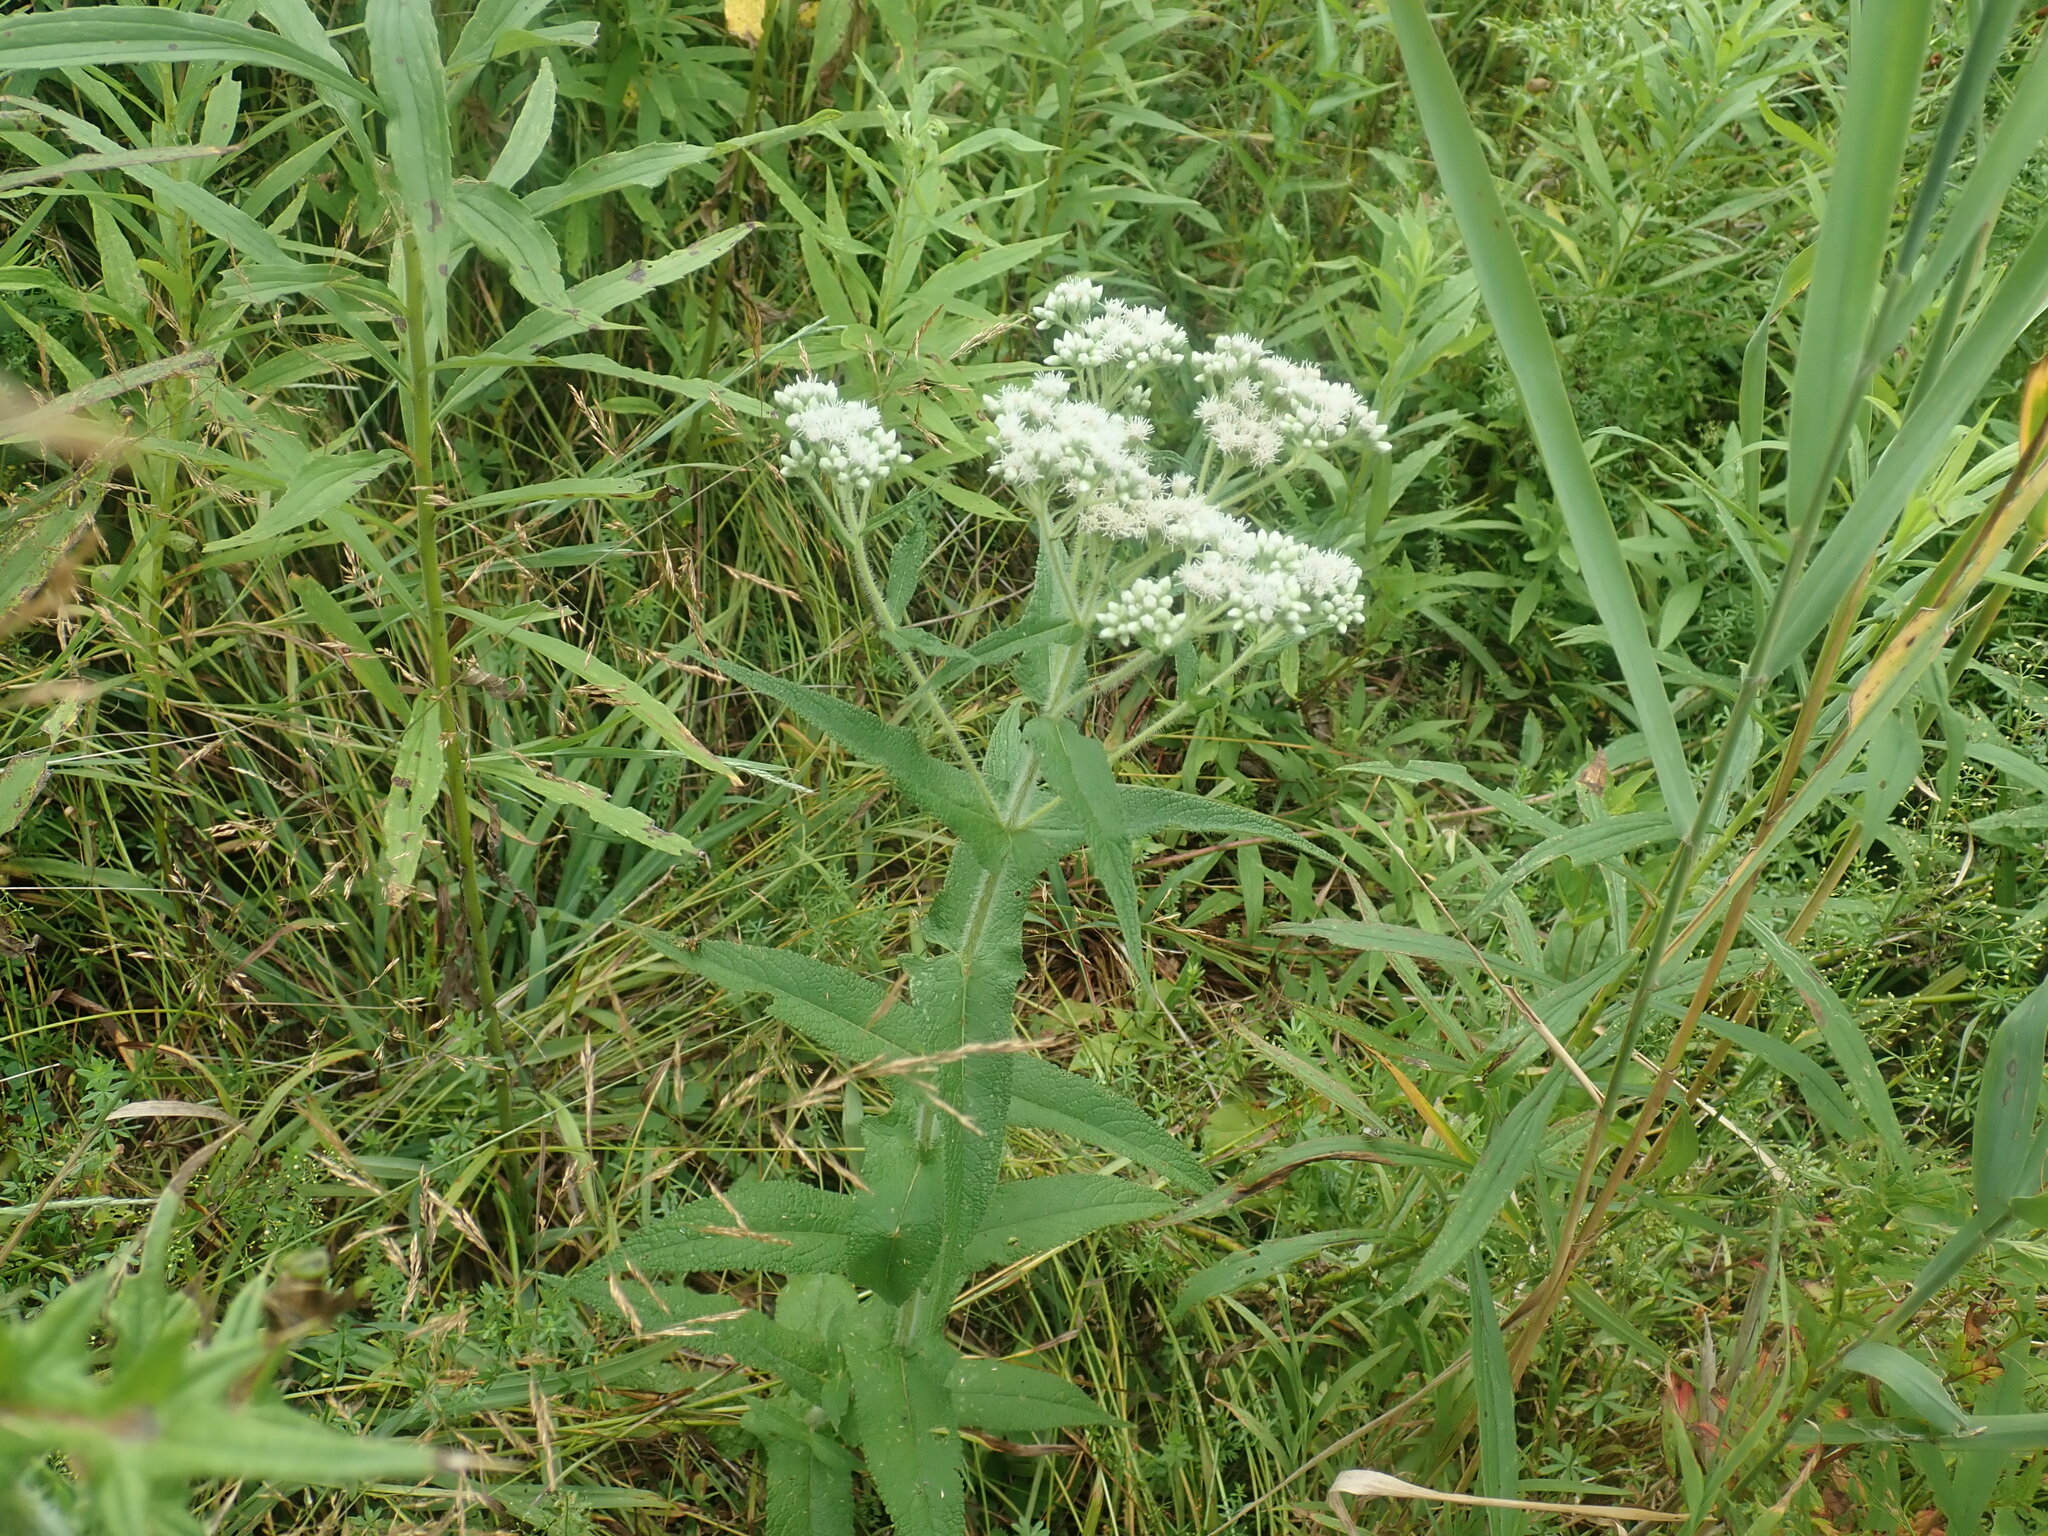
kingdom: Plantae
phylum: Tracheophyta
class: Magnoliopsida
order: Asterales
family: Asteraceae
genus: Eupatorium
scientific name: Eupatorium perfoliatum
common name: Boneset
